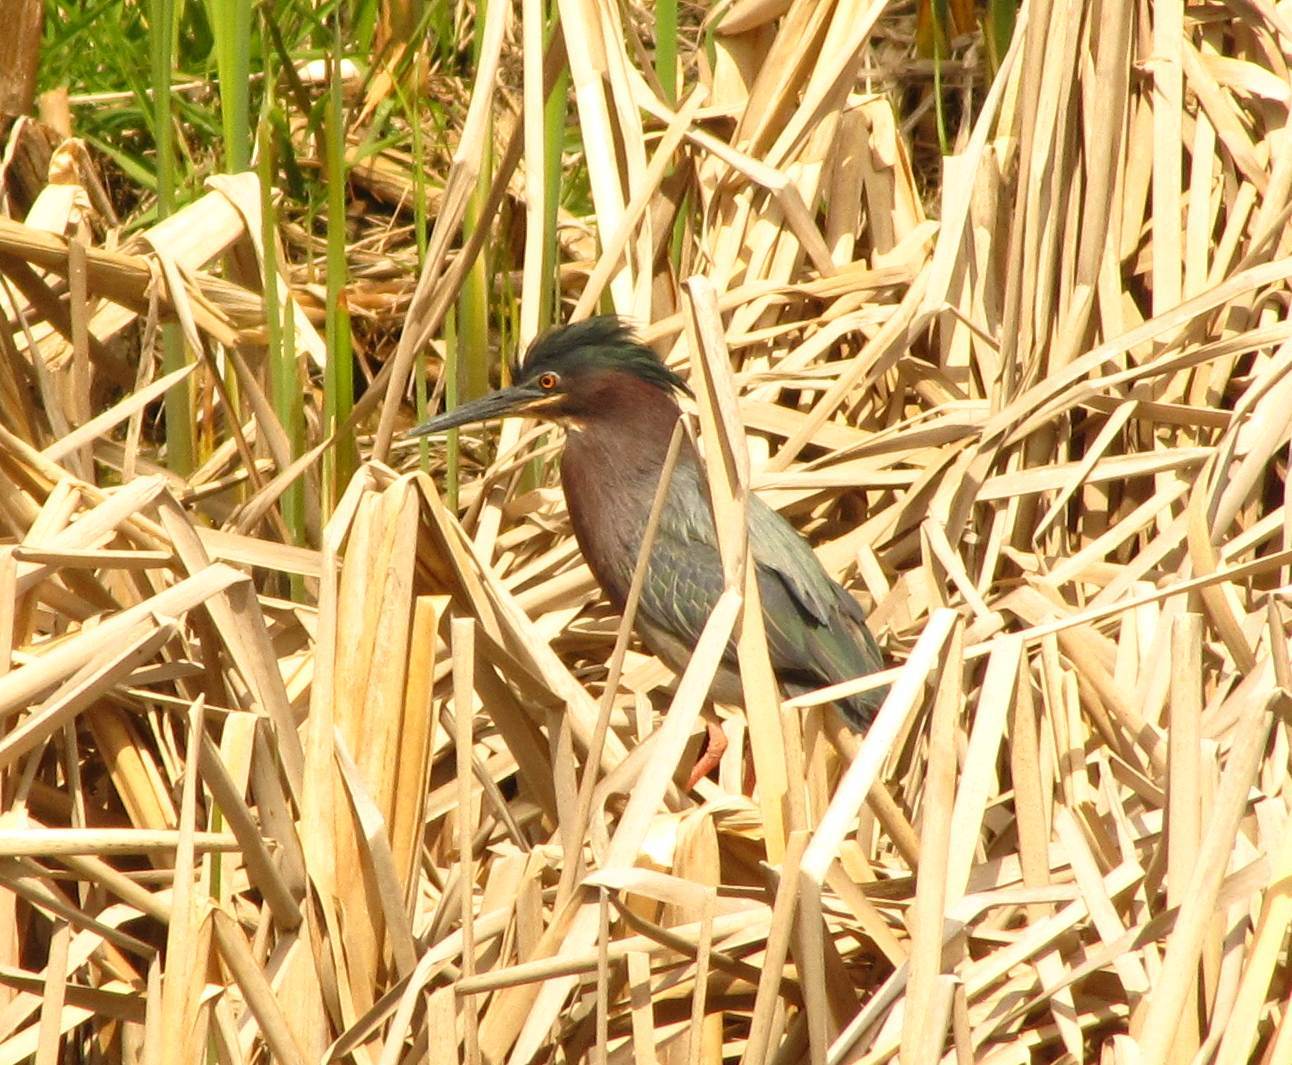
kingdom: Animalia
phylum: Chordata
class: Aves
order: Pelecaniformes
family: Ardeidae
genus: Butorides
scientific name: Butorides virescens
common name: Green heron
